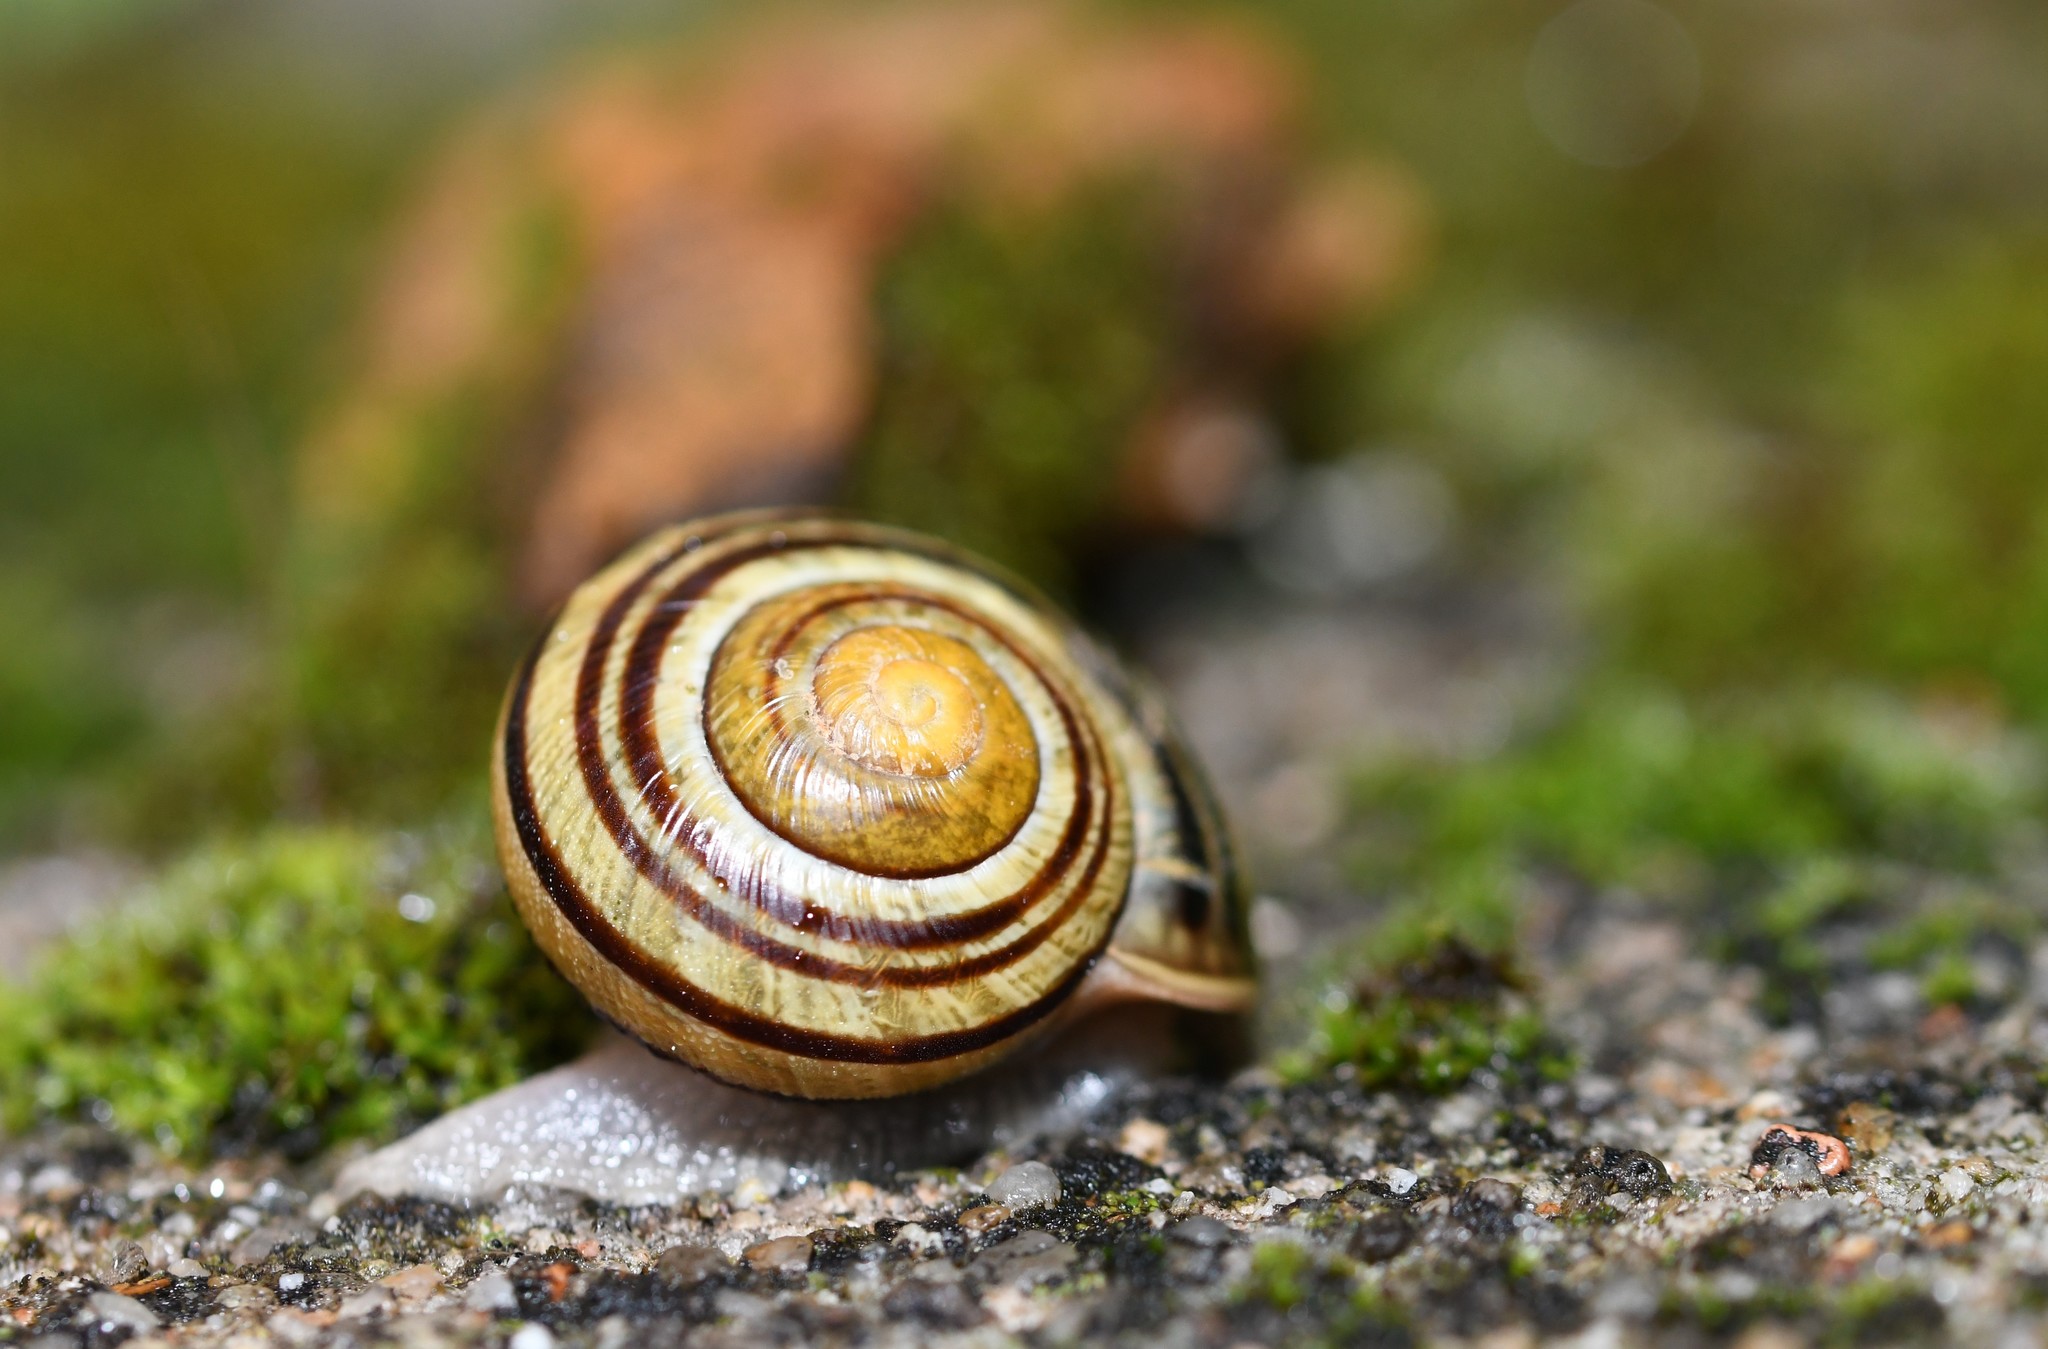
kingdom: Animalia
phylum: Mollusca
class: Gastropoda
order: Stylommatophora
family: Helicidae
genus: Cepaea
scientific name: Cepaea nemoralis
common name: Grovesnail
